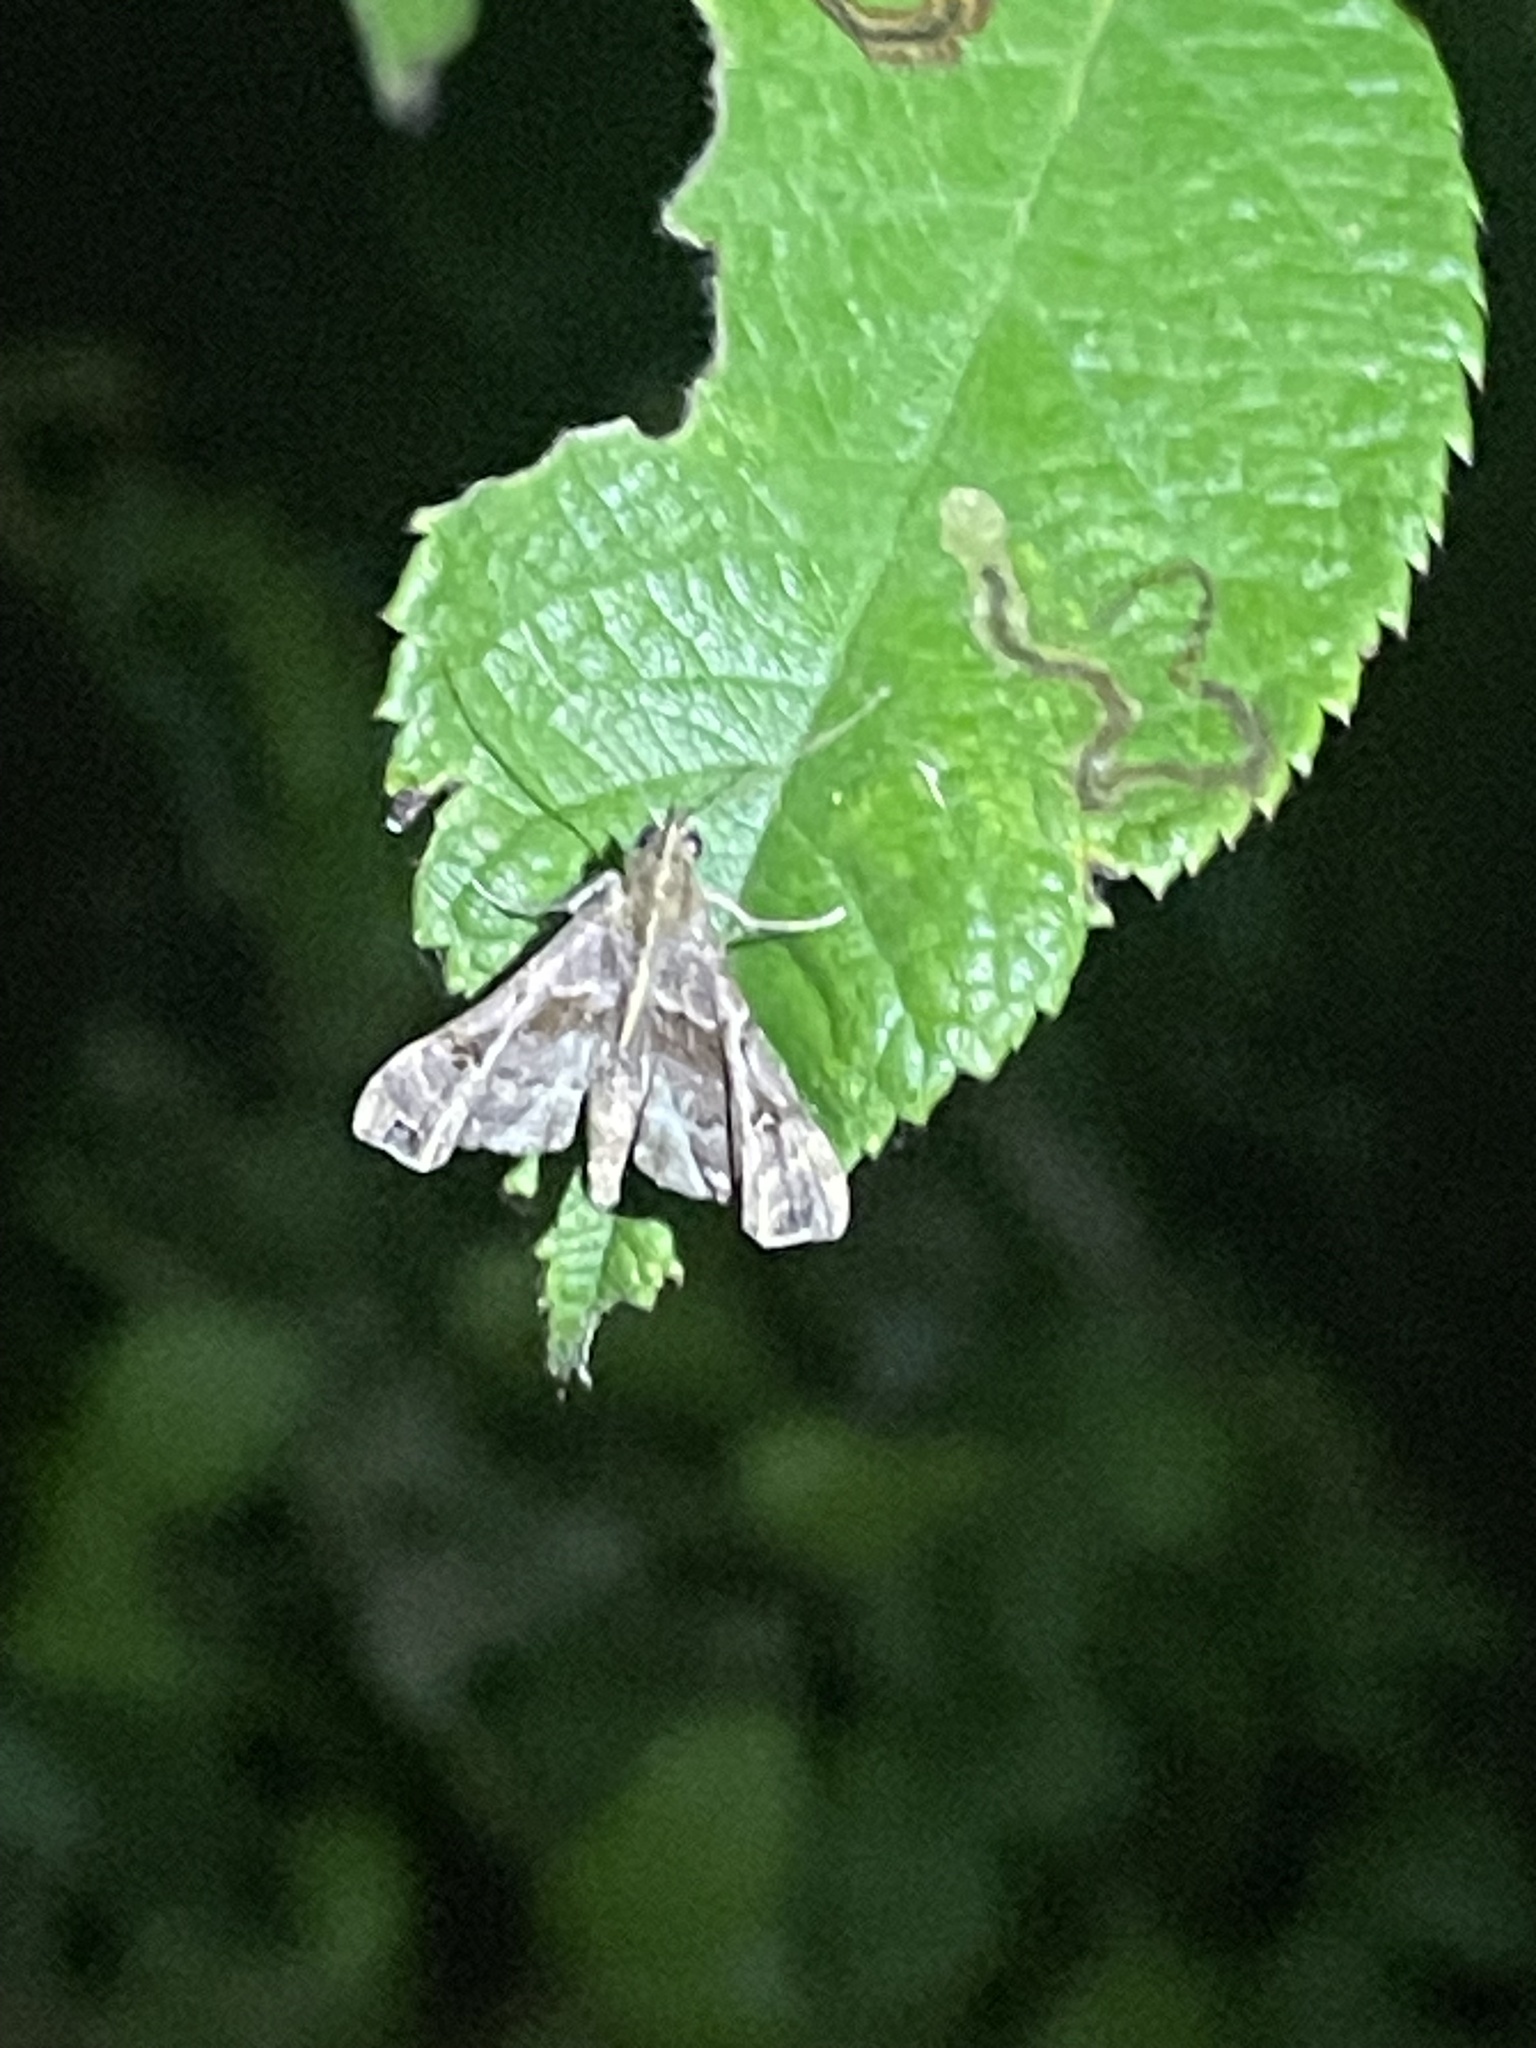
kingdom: Animalia
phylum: Arthropoda
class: Insecta
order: Lepidoptera
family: Erebidae
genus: Palthis
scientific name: Palthis asopialis
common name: Faint-spotted palthis moth
